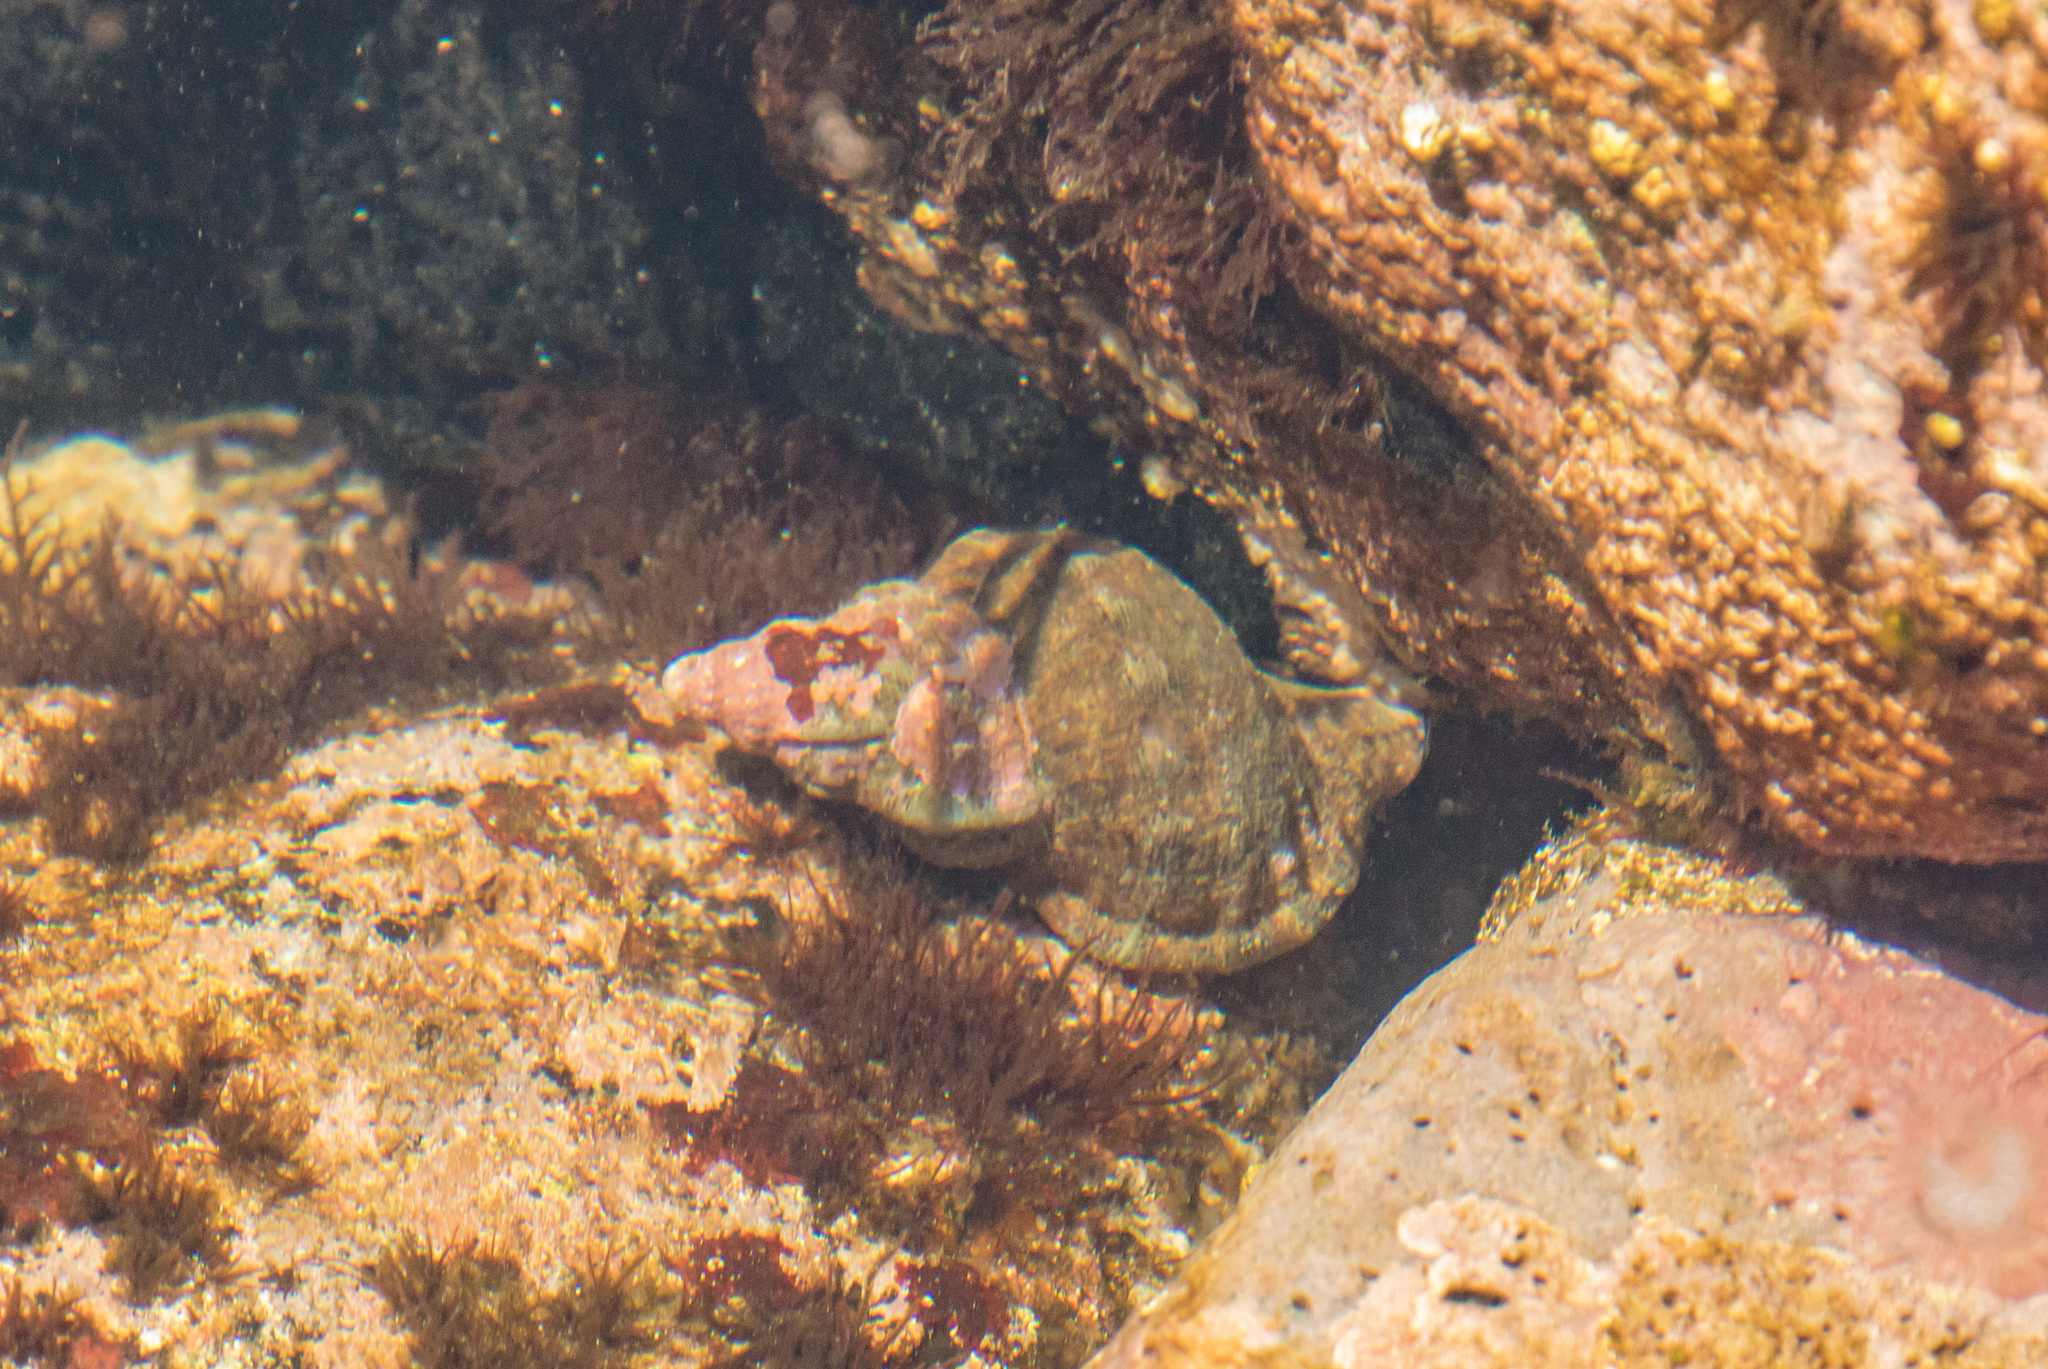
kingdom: Animalia
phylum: Mollusca
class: Gastropoda
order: Littorinimorpha
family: Ranellidae
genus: Ranella
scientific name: Ranella australasia
